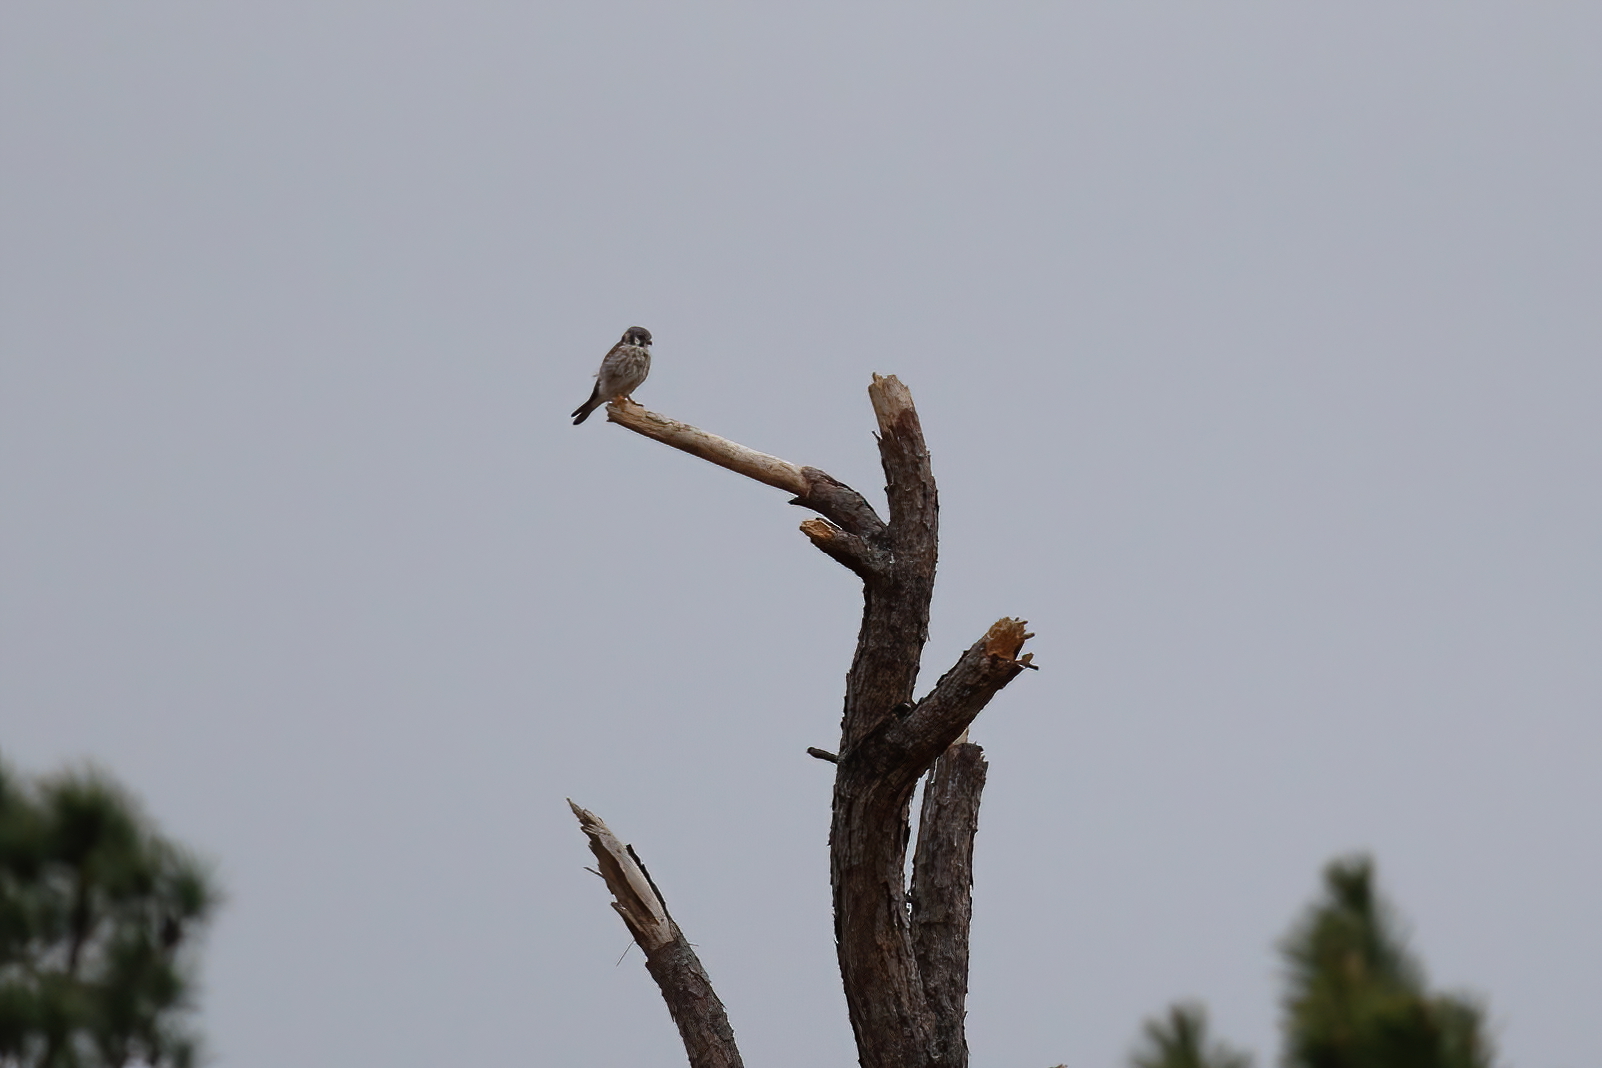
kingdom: Animalia
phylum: Chordata
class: Aves
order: Falconiformes
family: Falconidae
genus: Falco
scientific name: Falco sparverius
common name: American kestrel
